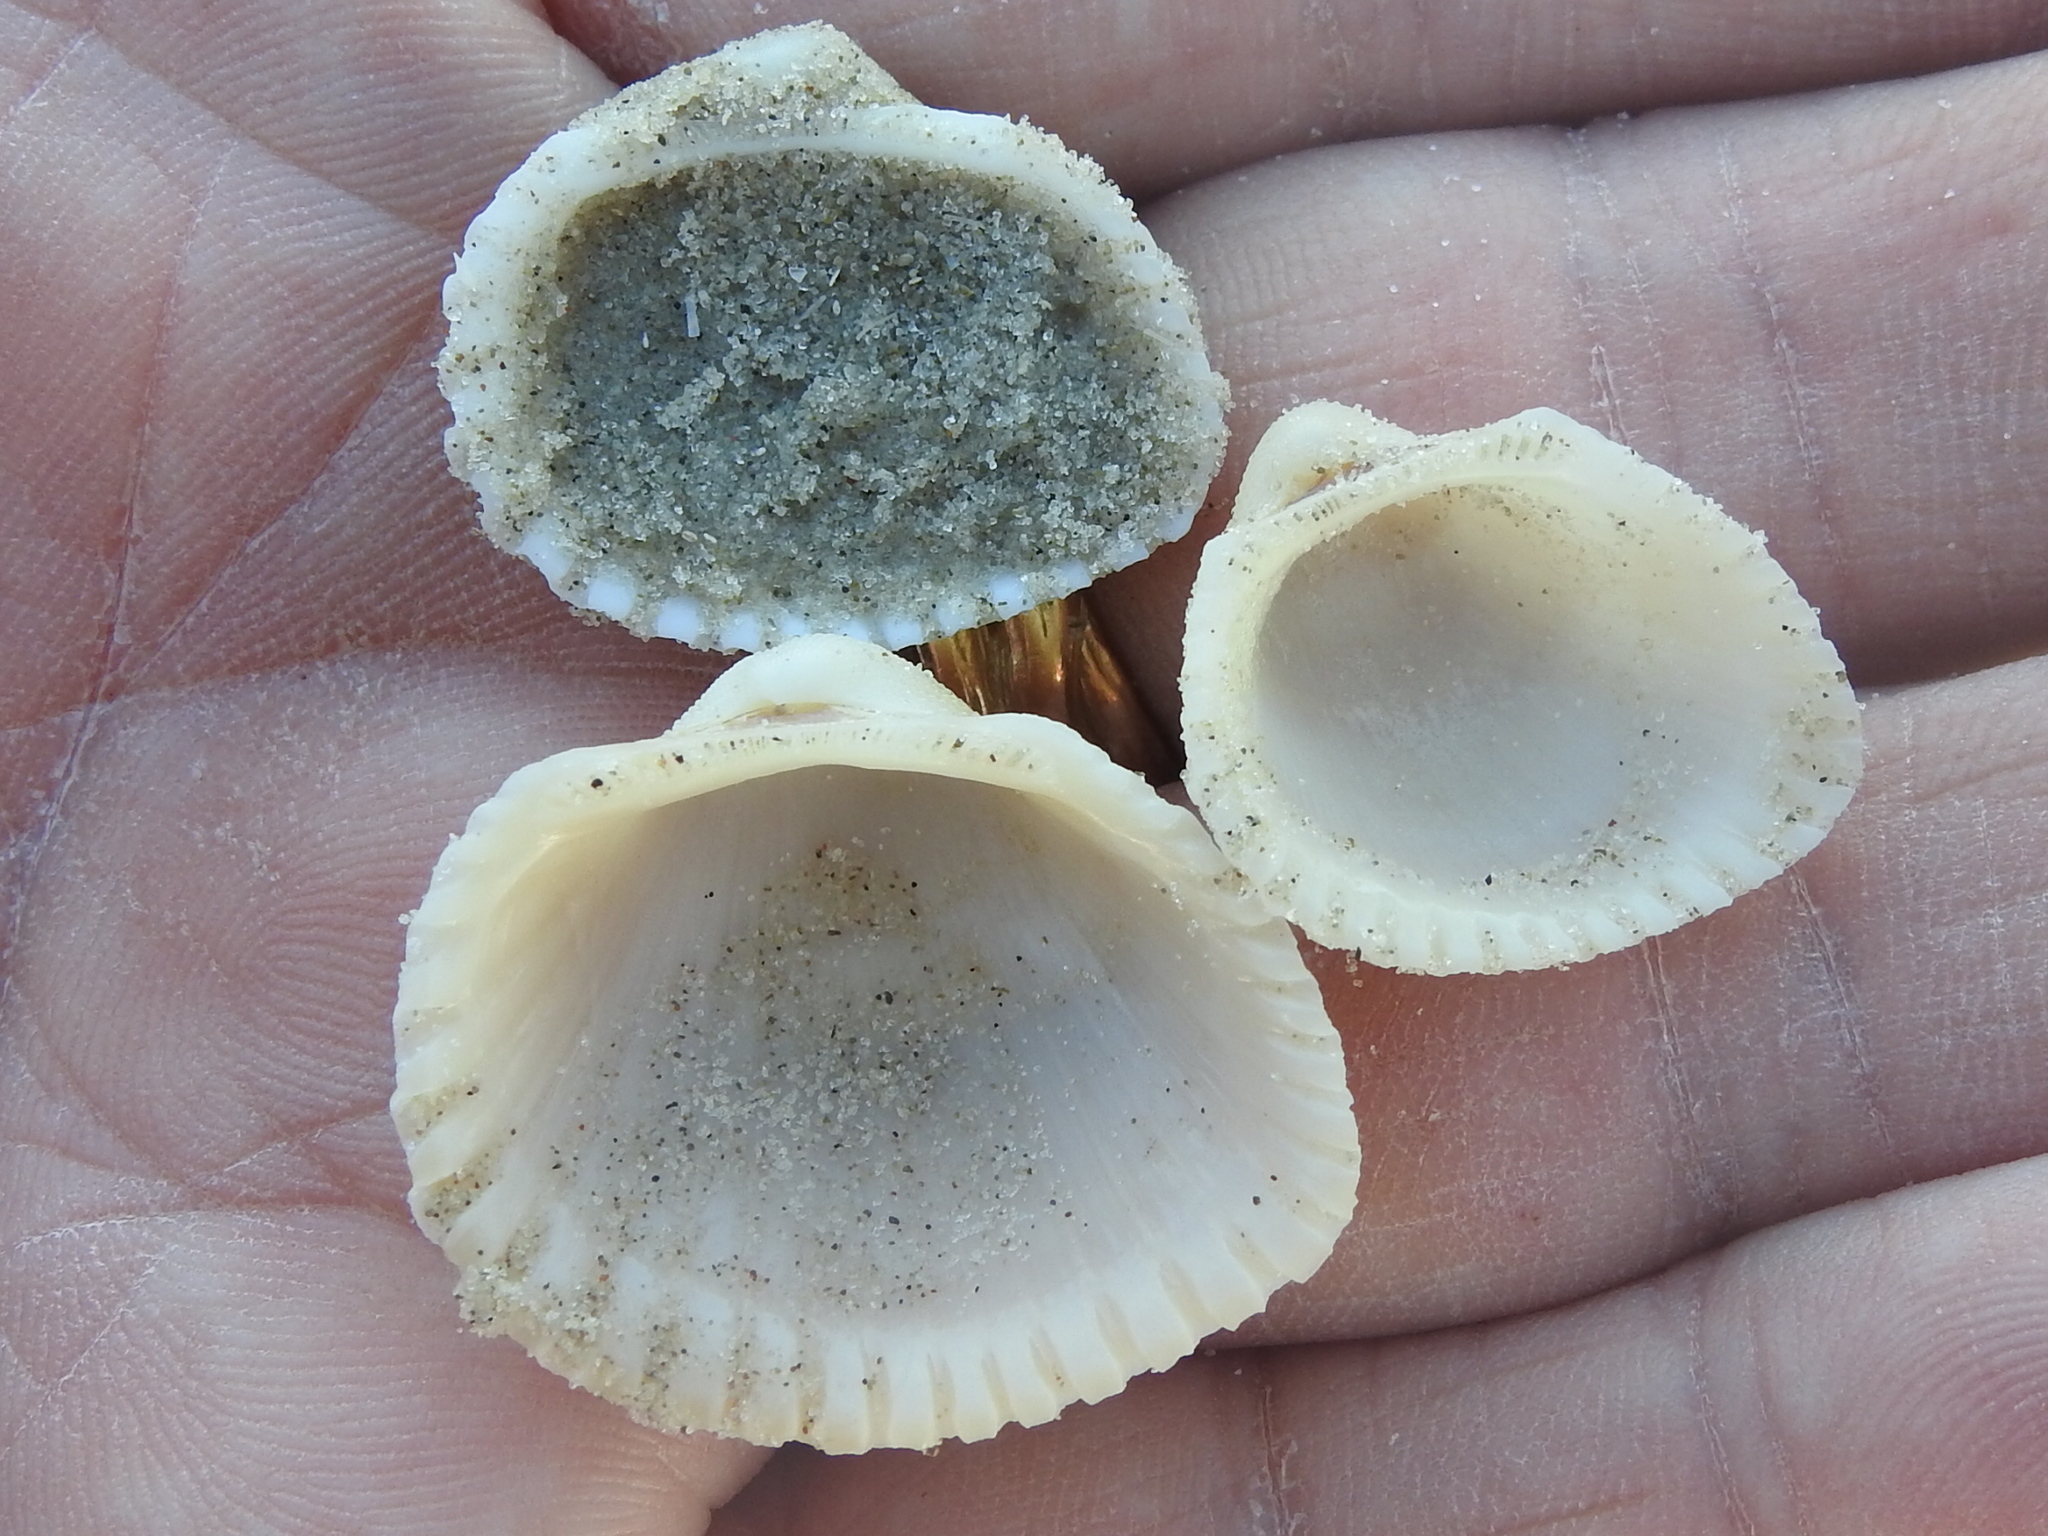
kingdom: Animalia
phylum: Mollusca
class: Bivalvia
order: Arcida
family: Arcidae
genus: Anadara
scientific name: Anadara brasiliana
